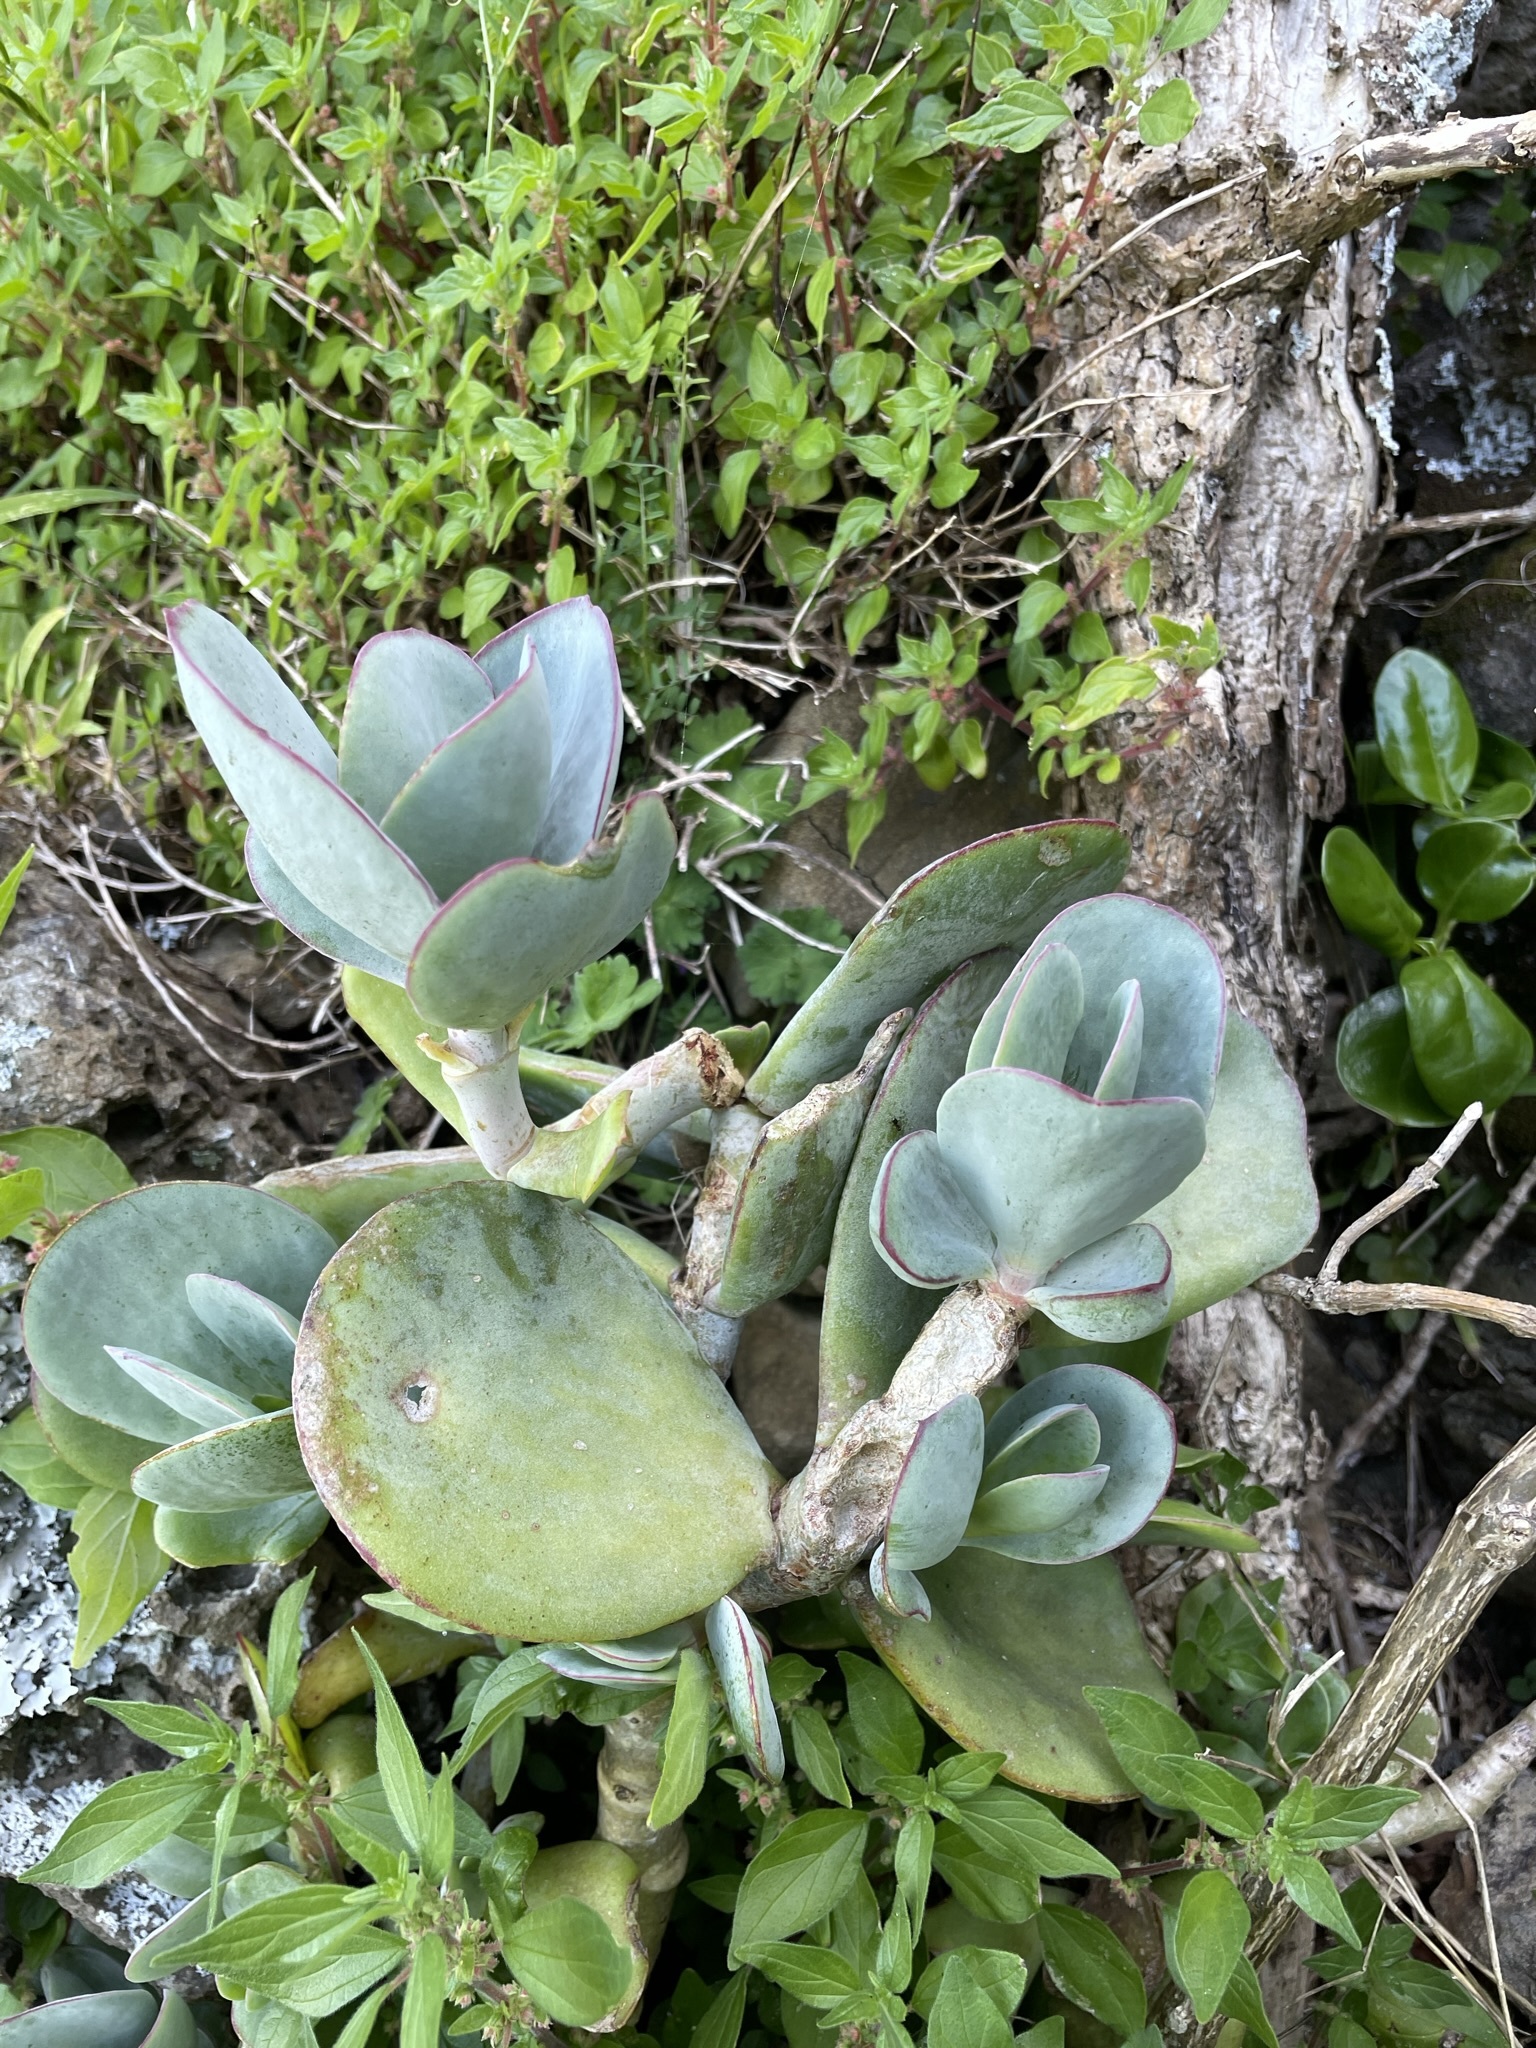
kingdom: Plantae
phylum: Tracheophyta
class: Magnoliopsida
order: Saxifragales
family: Crassulaceae
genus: Cotyledon
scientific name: Cotyledon orbiculata
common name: Pig's ear
